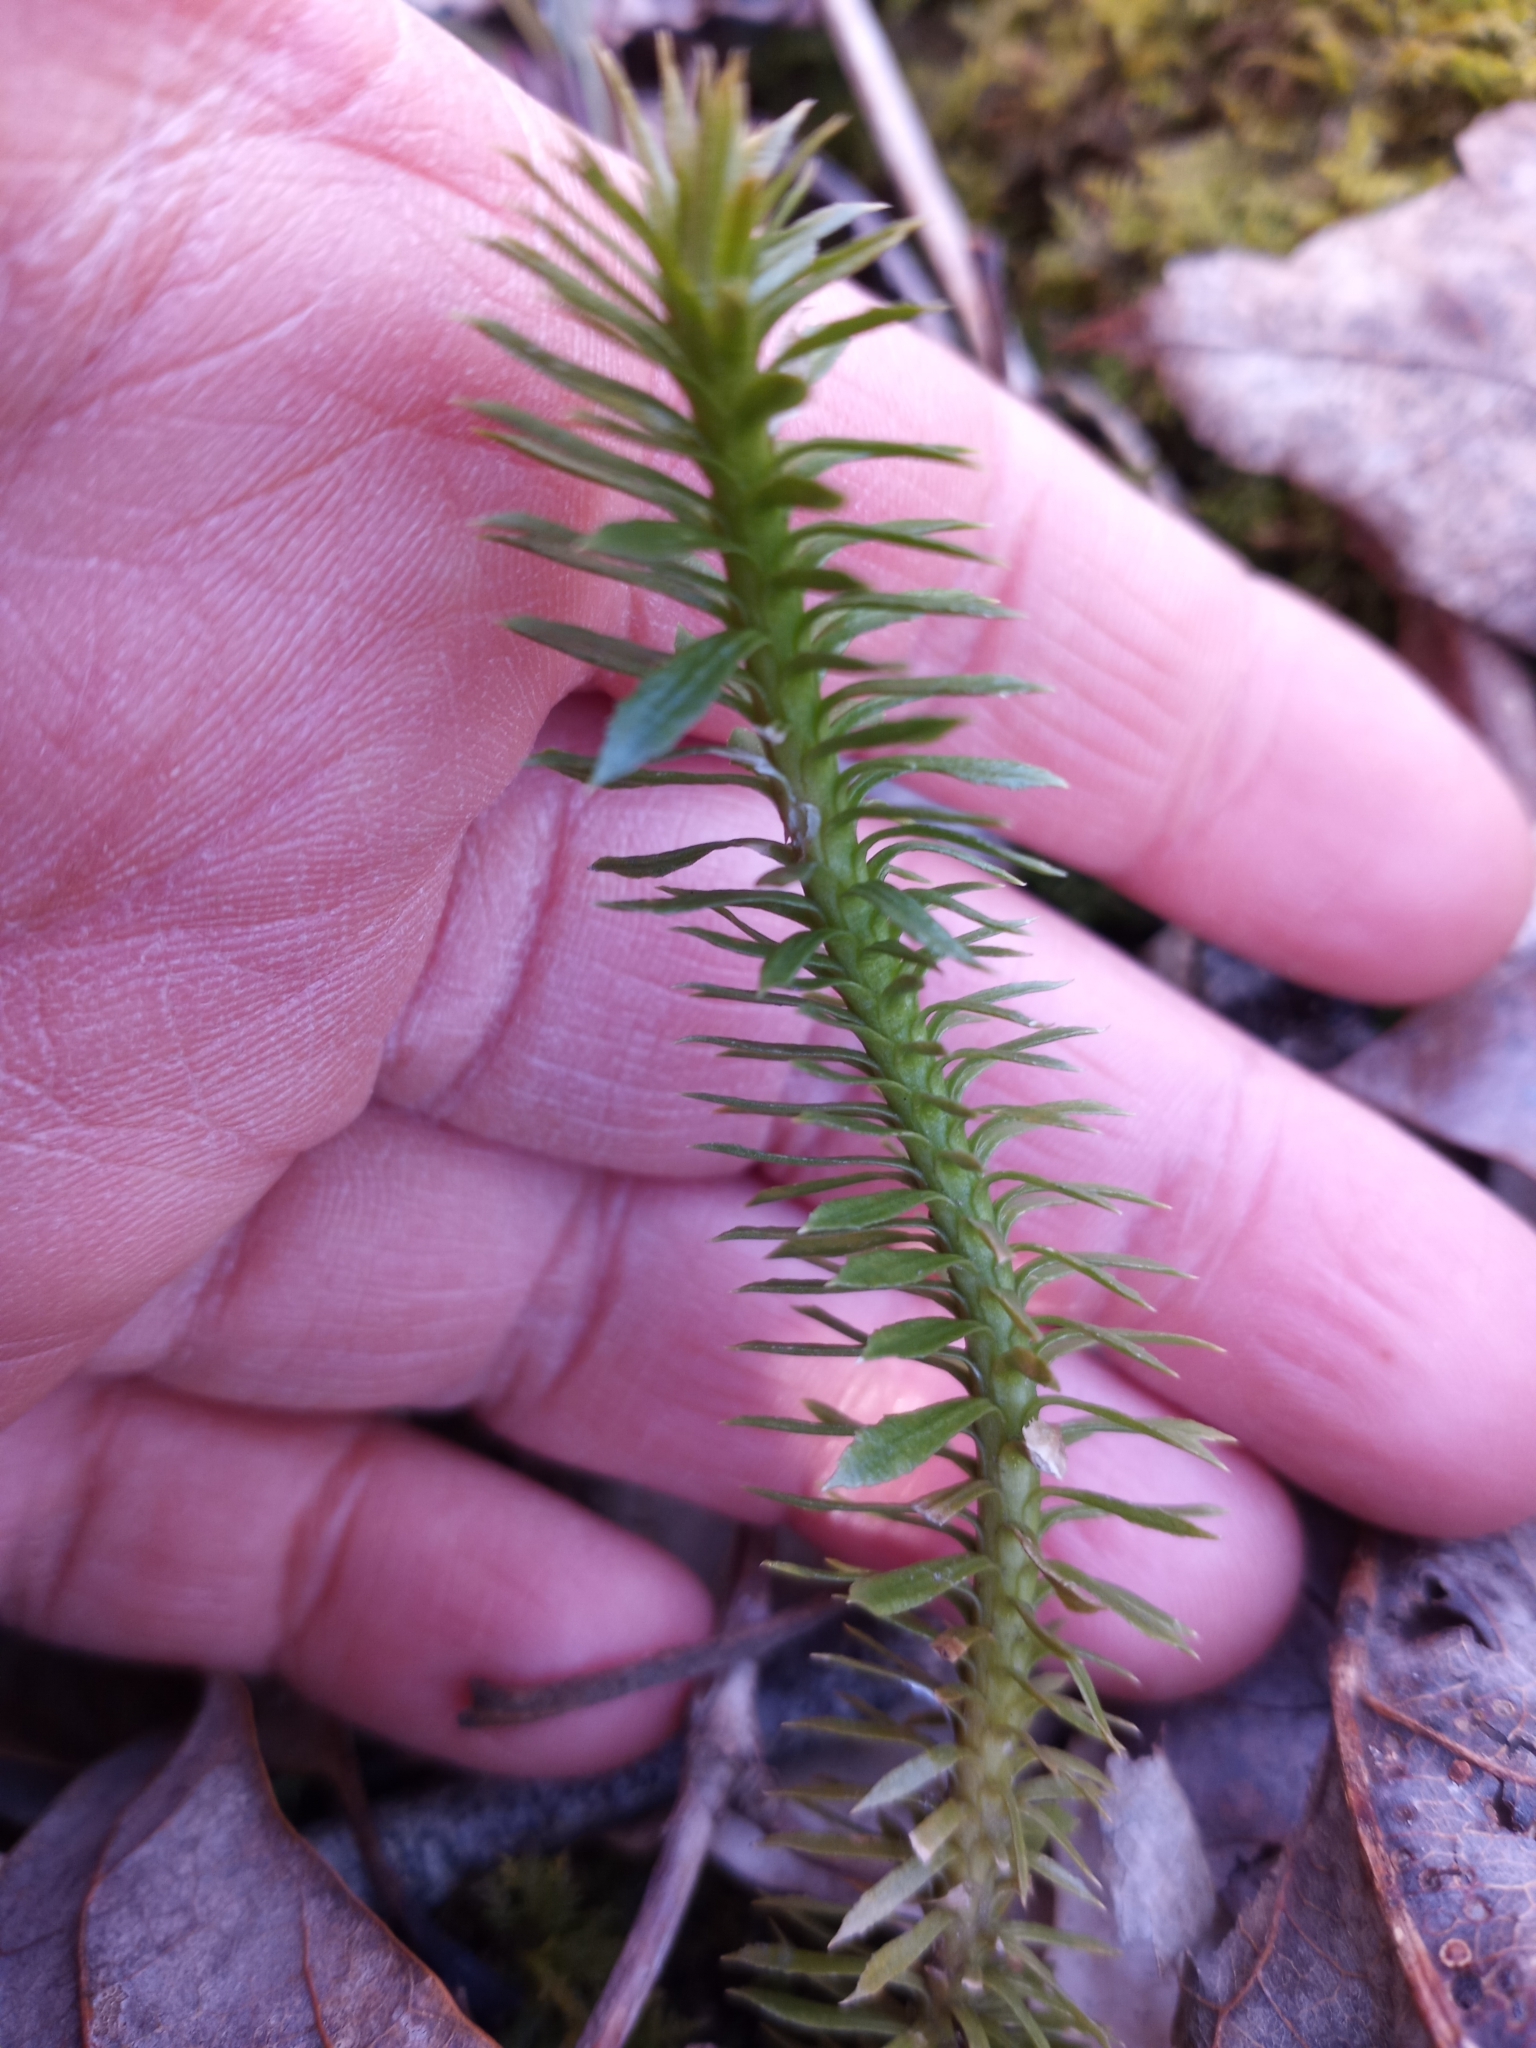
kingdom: Plantae
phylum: Tracheophyta
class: Lycopodiopsida
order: Lycopodiales
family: Lycopodiaceae
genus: Huperzia
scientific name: Huperzia lucidula
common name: Shining clubmoss
